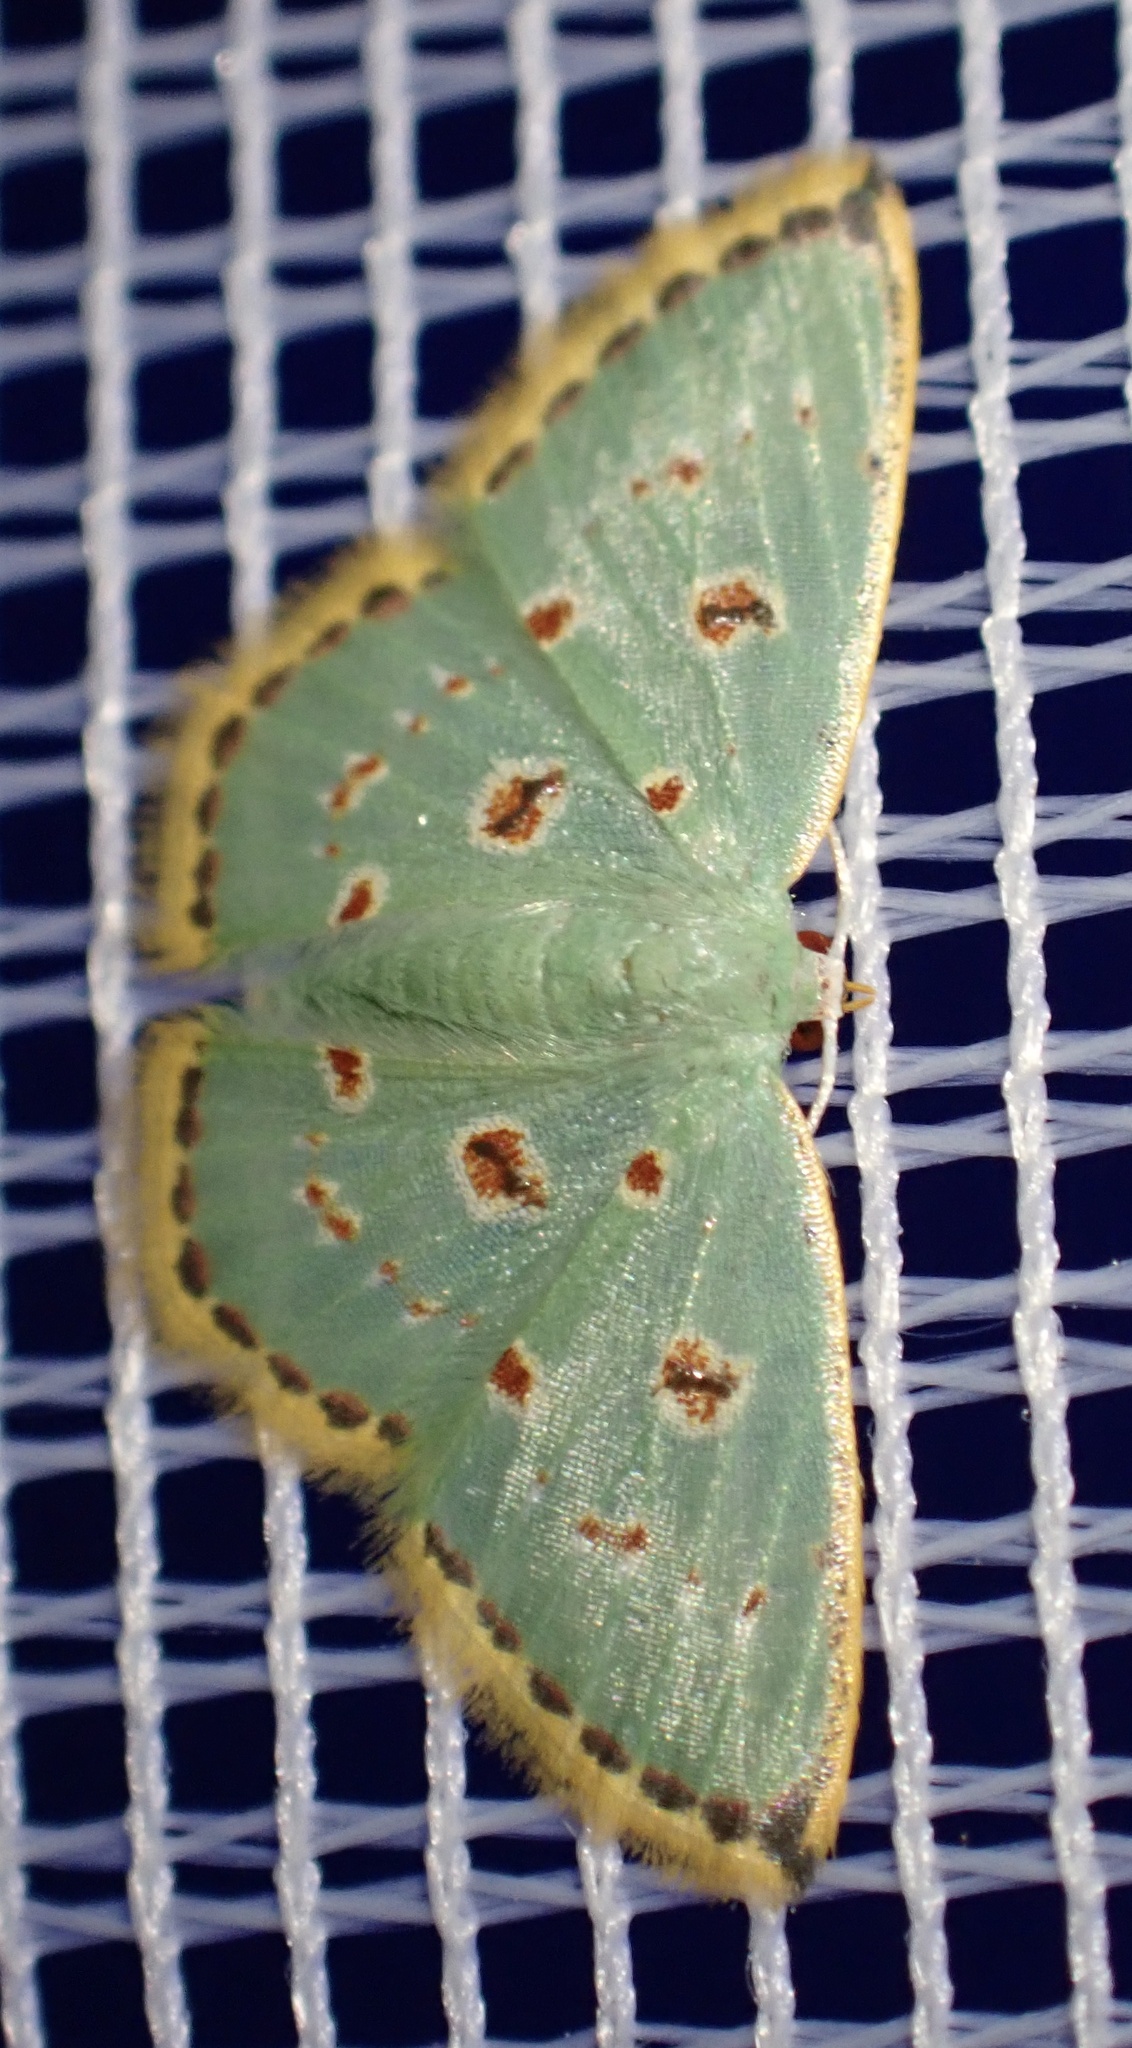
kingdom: Animalia
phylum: Arthropoda
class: Insecta
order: Lepidoptera
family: Geometridae
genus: Comostola
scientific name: Comostola laesaria
